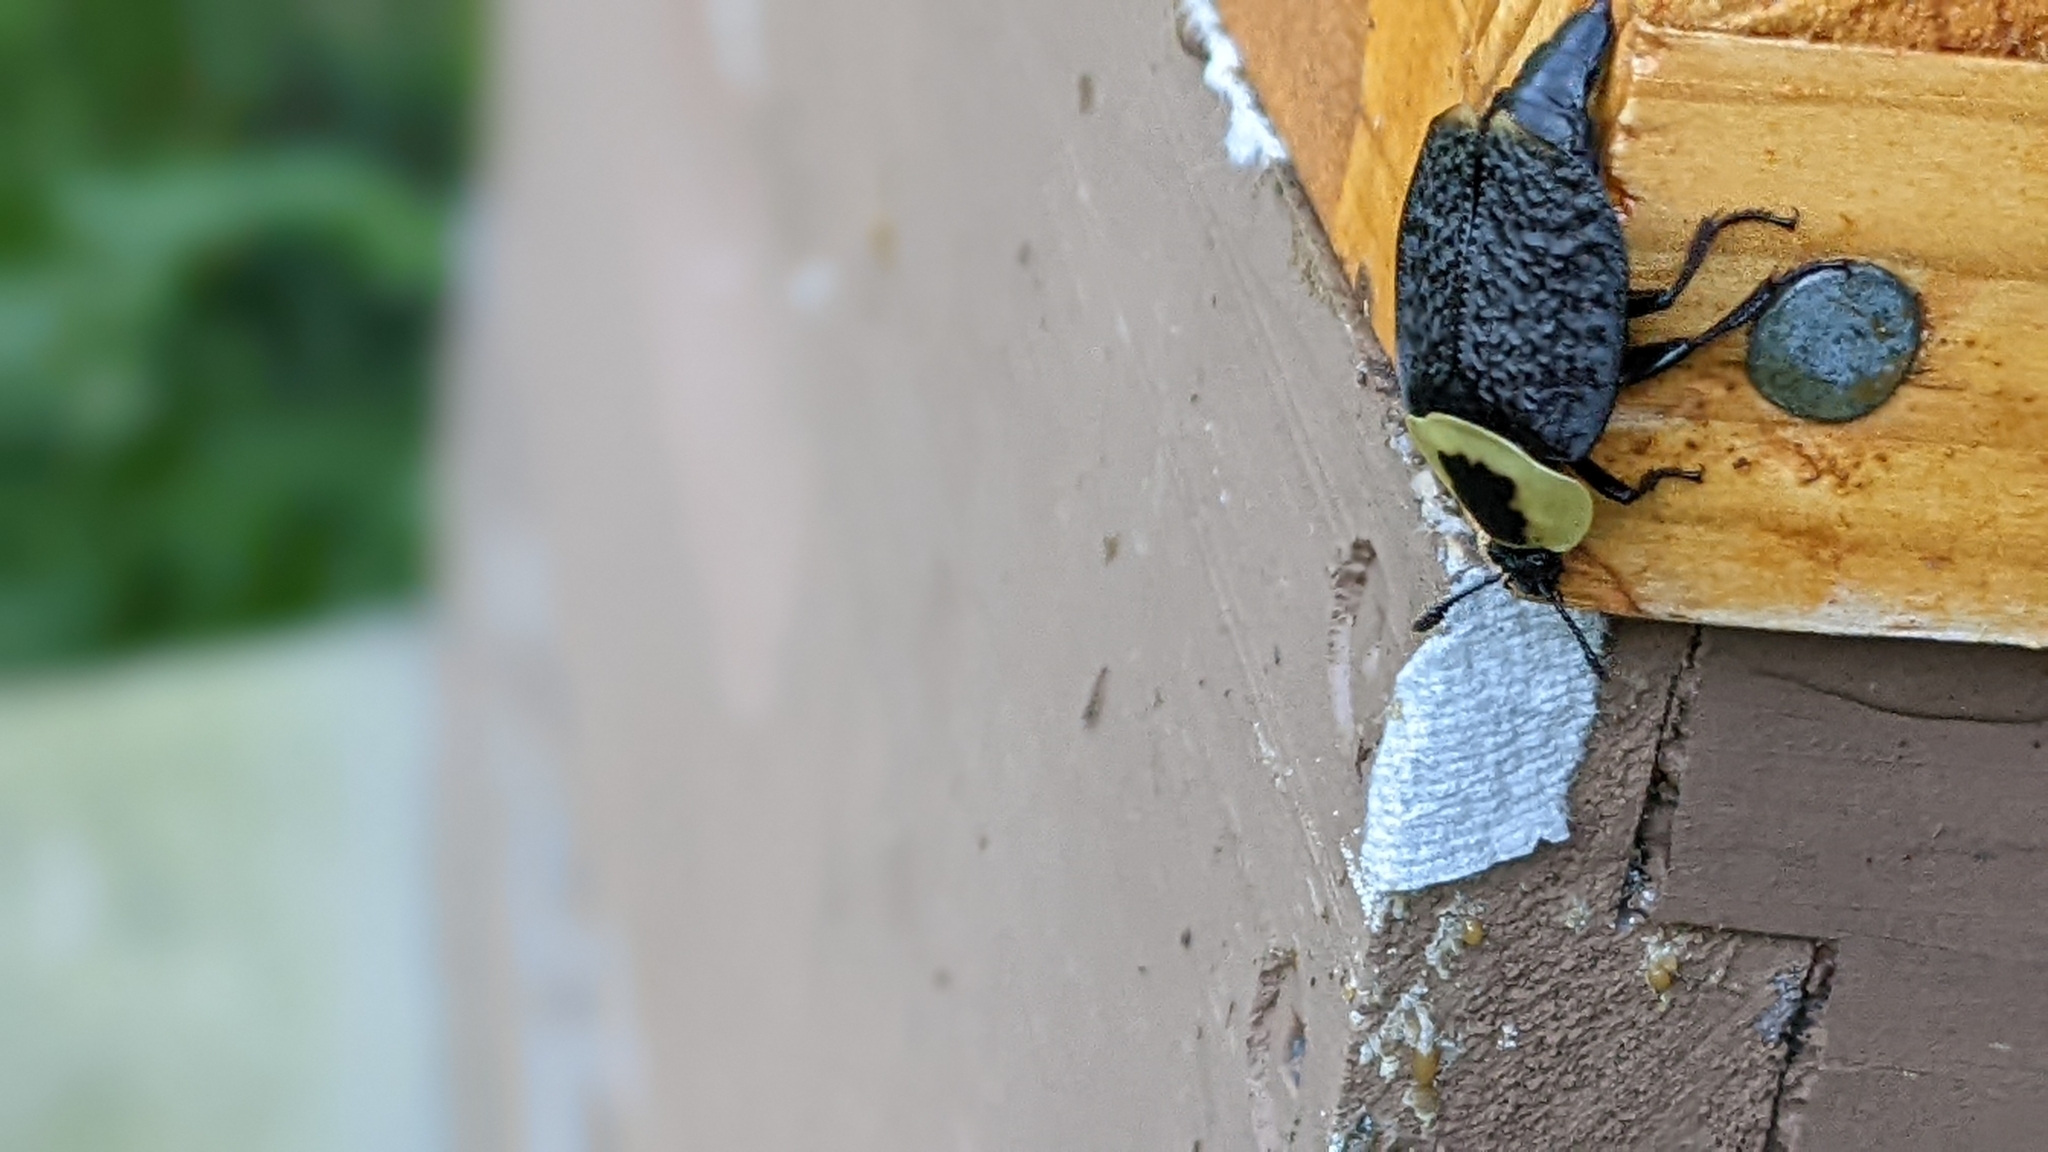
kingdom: Animalia
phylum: Arthropoda
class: Insecta
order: Coleoptera
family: Staphylinidae
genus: Necrophila
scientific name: Necrophila americana
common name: American carrion beetle
